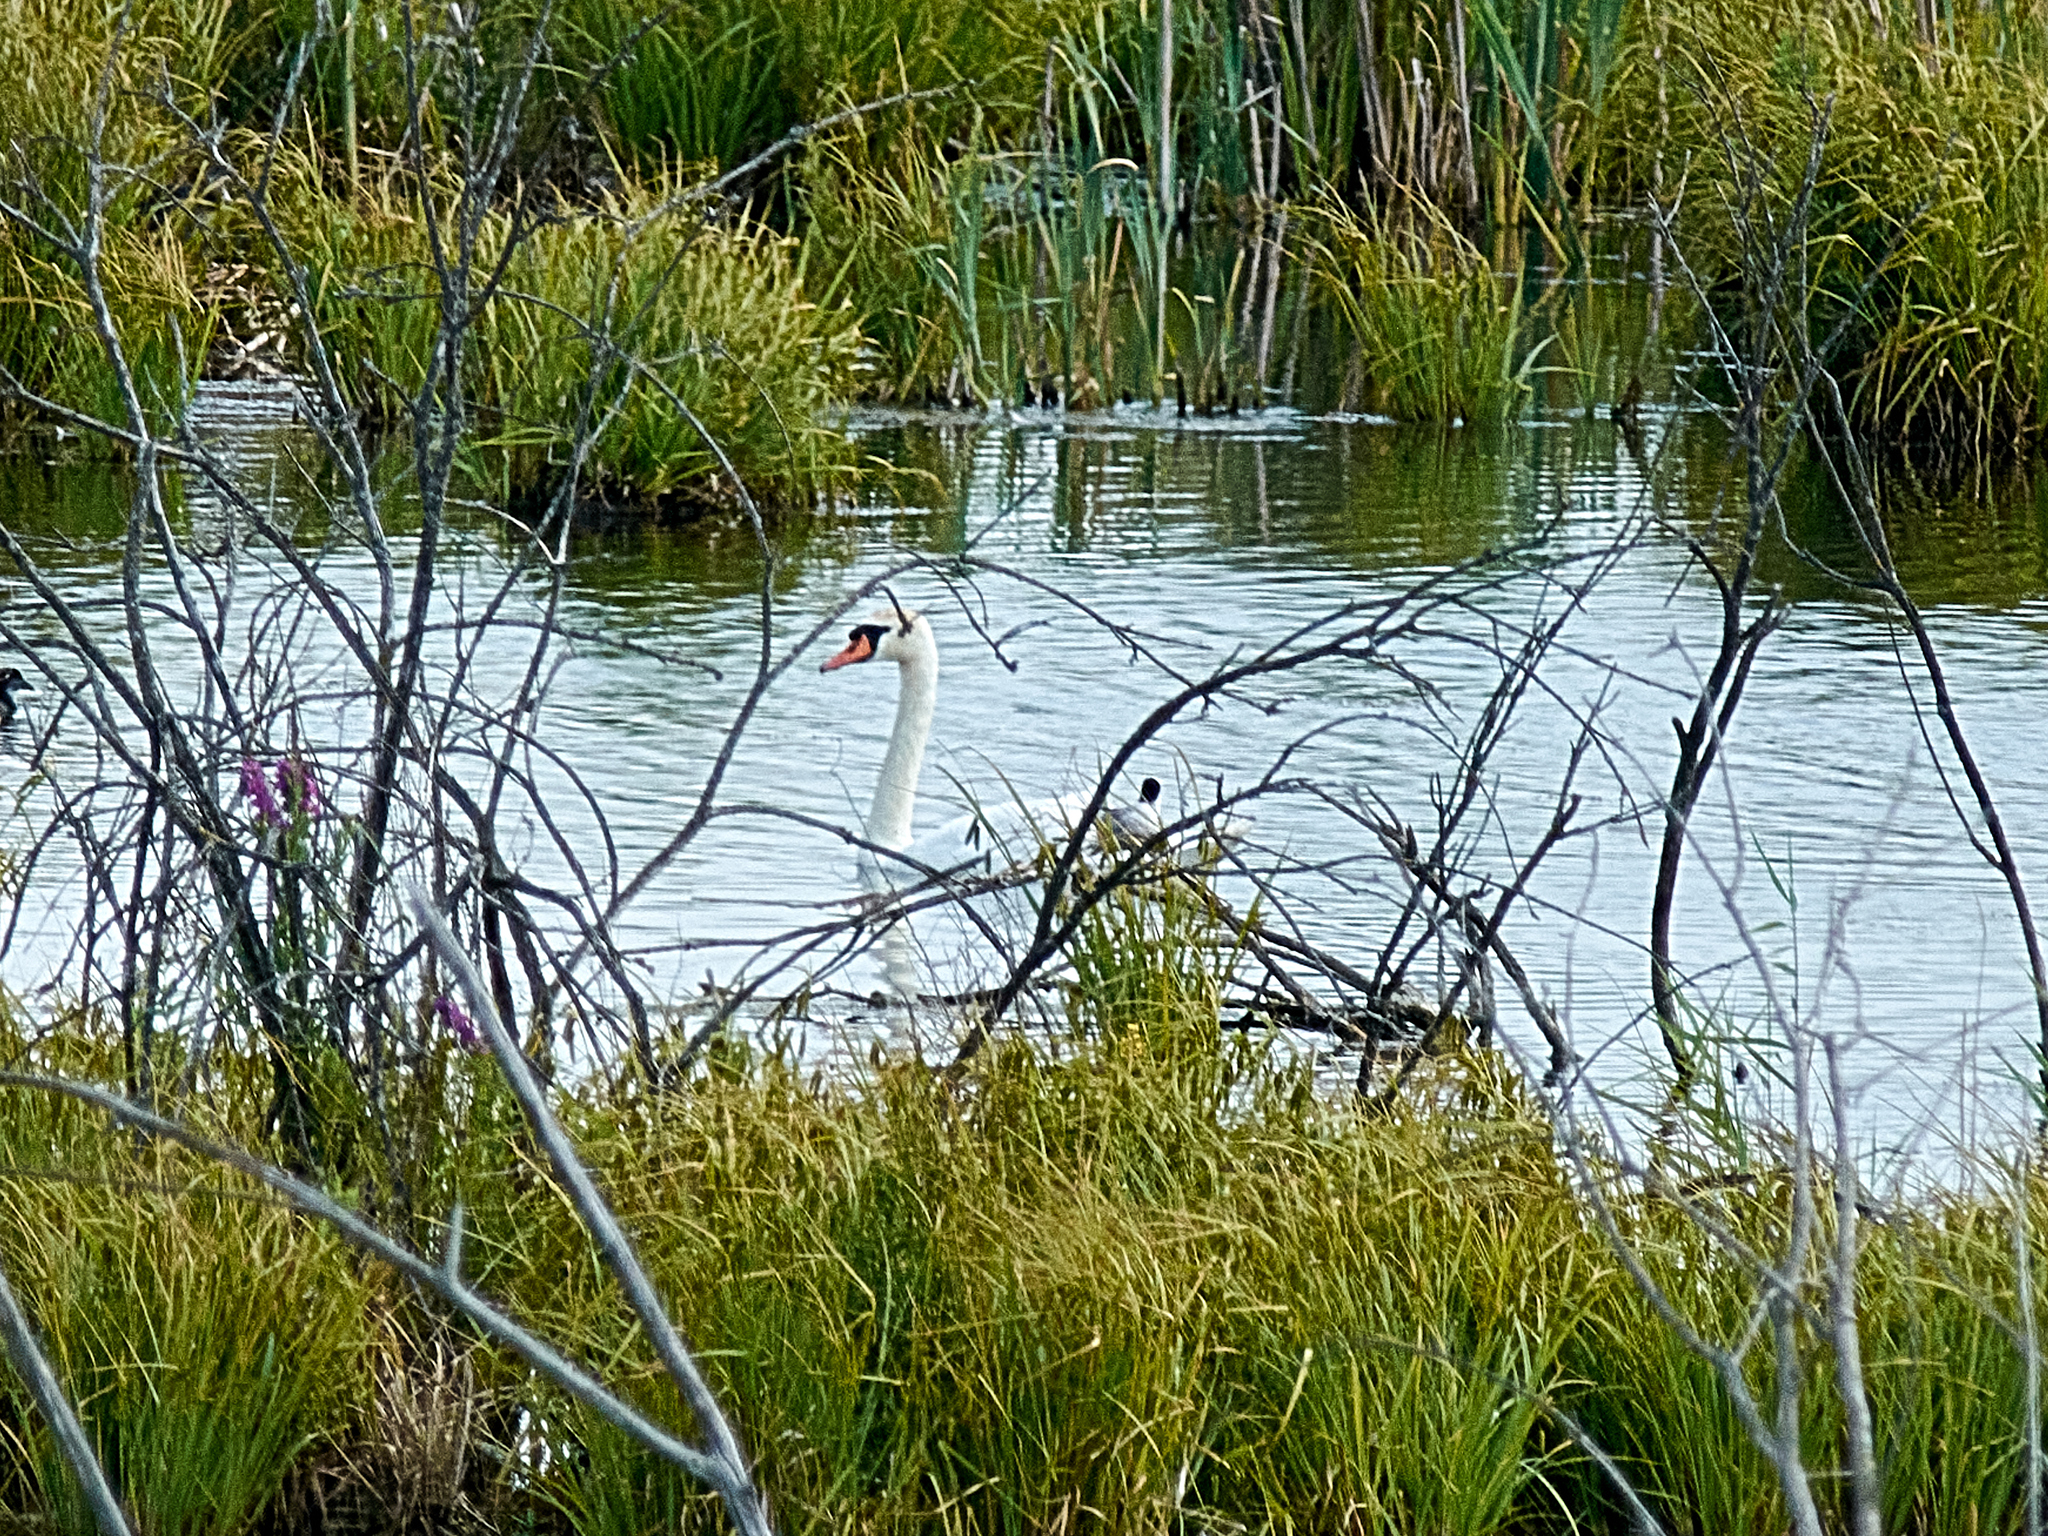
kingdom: Animalia
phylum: Chordata
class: Aves
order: Anseriformes
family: Anatidae
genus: Cygnus
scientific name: Cygnus olor
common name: Mute swan
